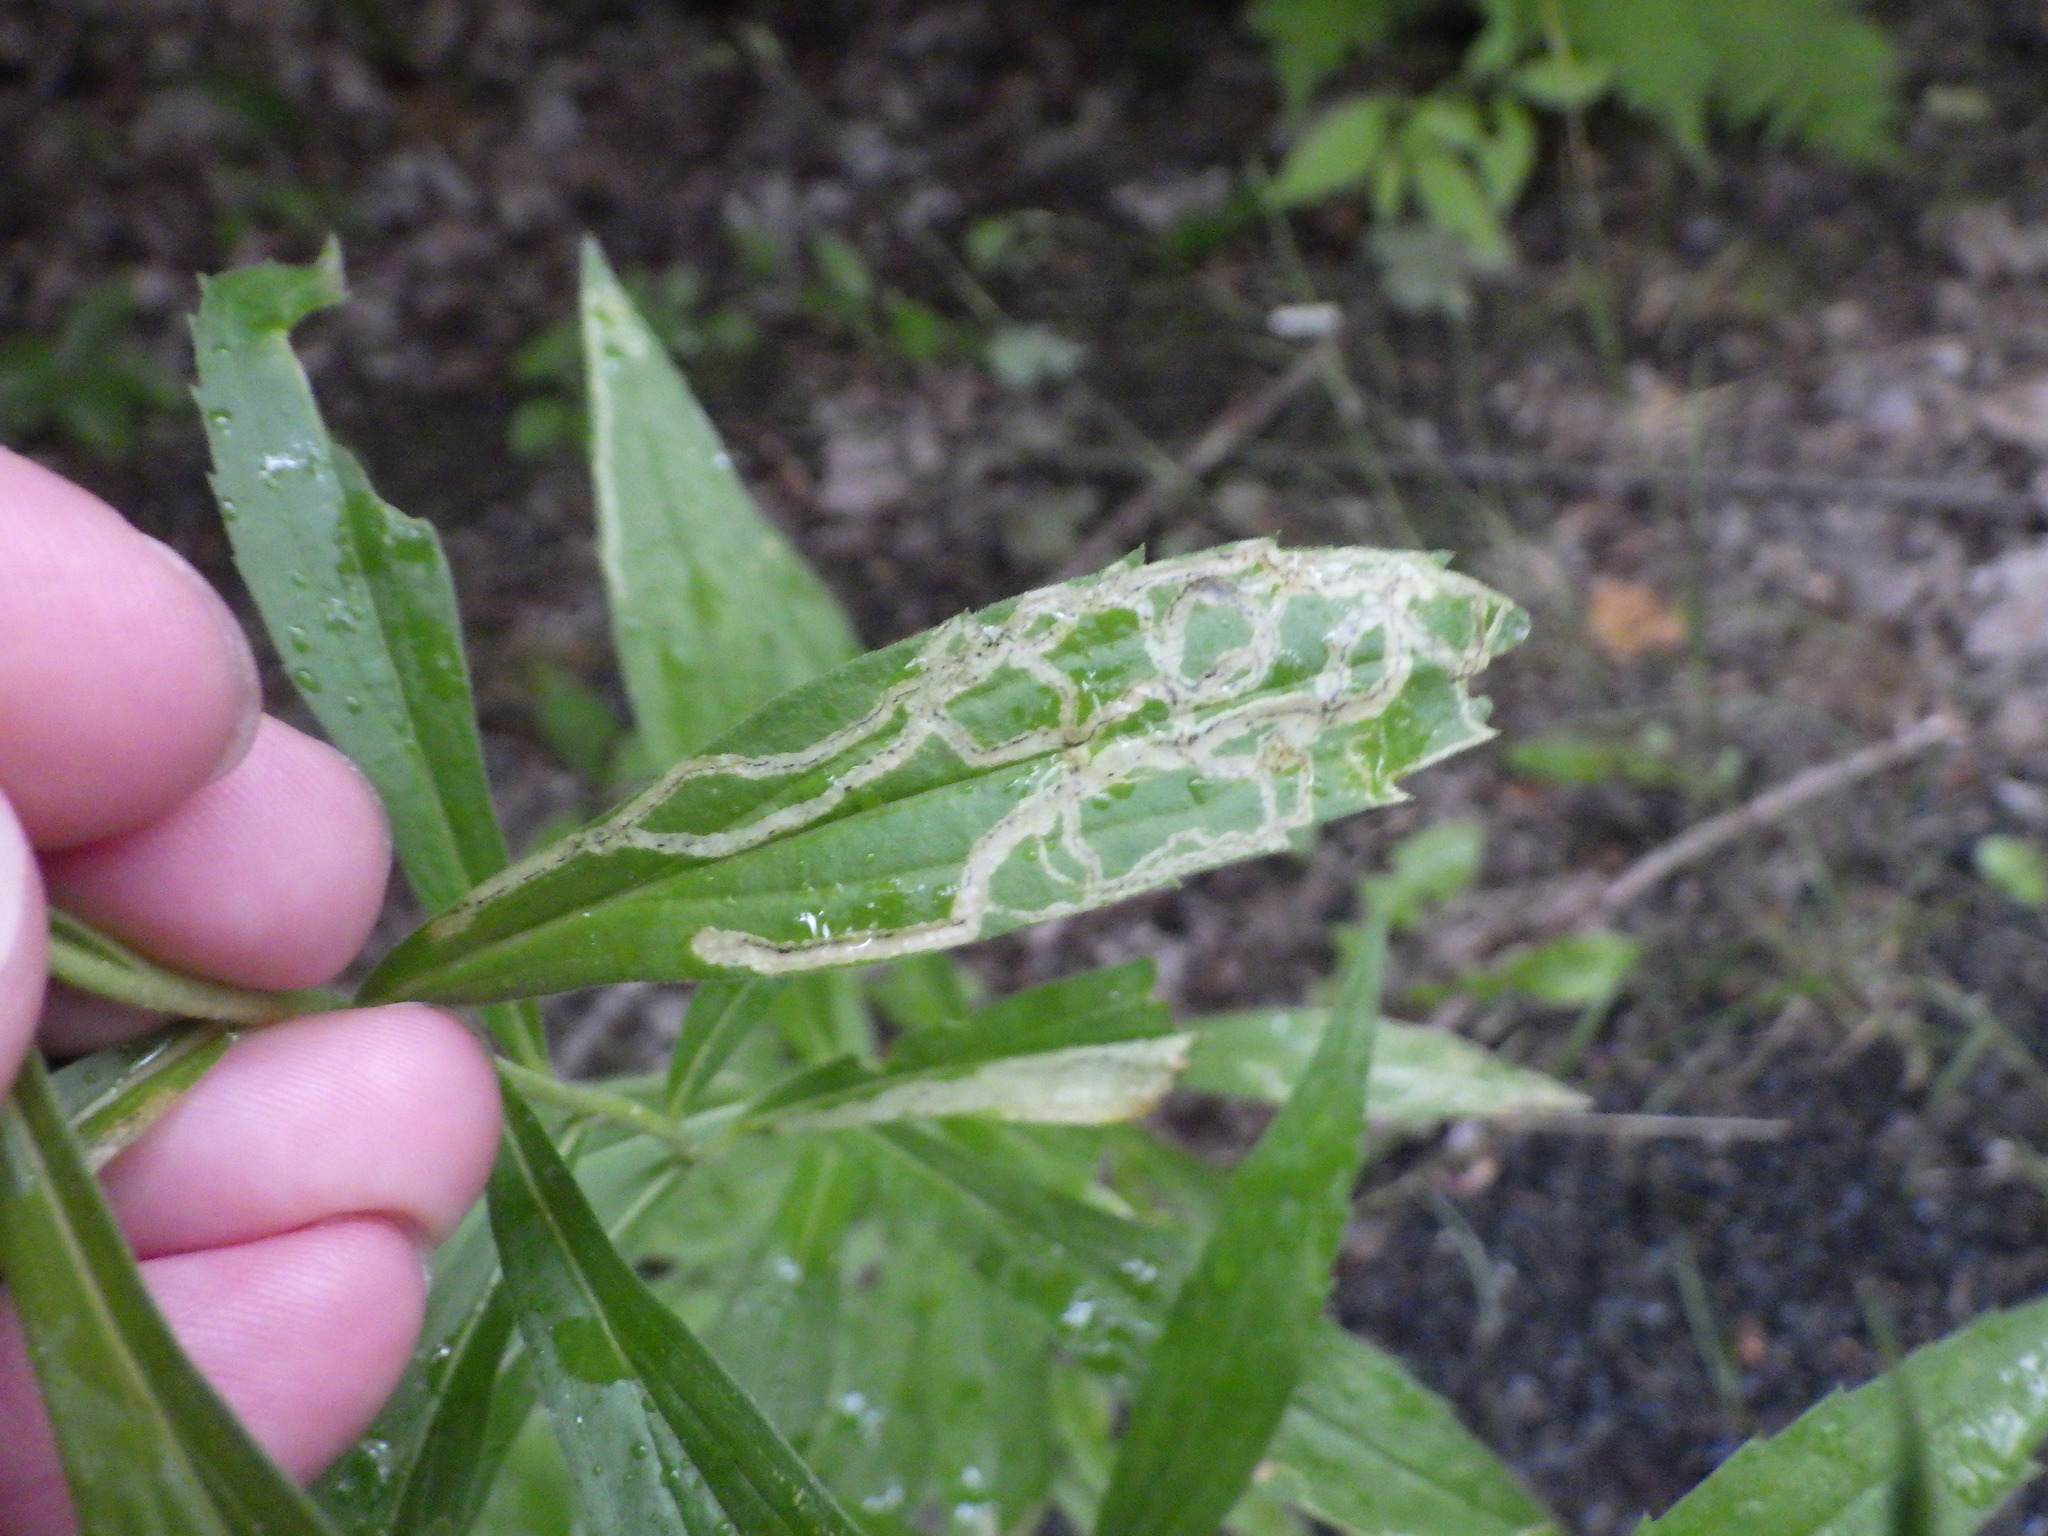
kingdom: Animalia
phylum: Arthropoda
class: Insecta
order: Diptera
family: Agromyzidae
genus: Liriomyza
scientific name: Liriomyza eupatorii
